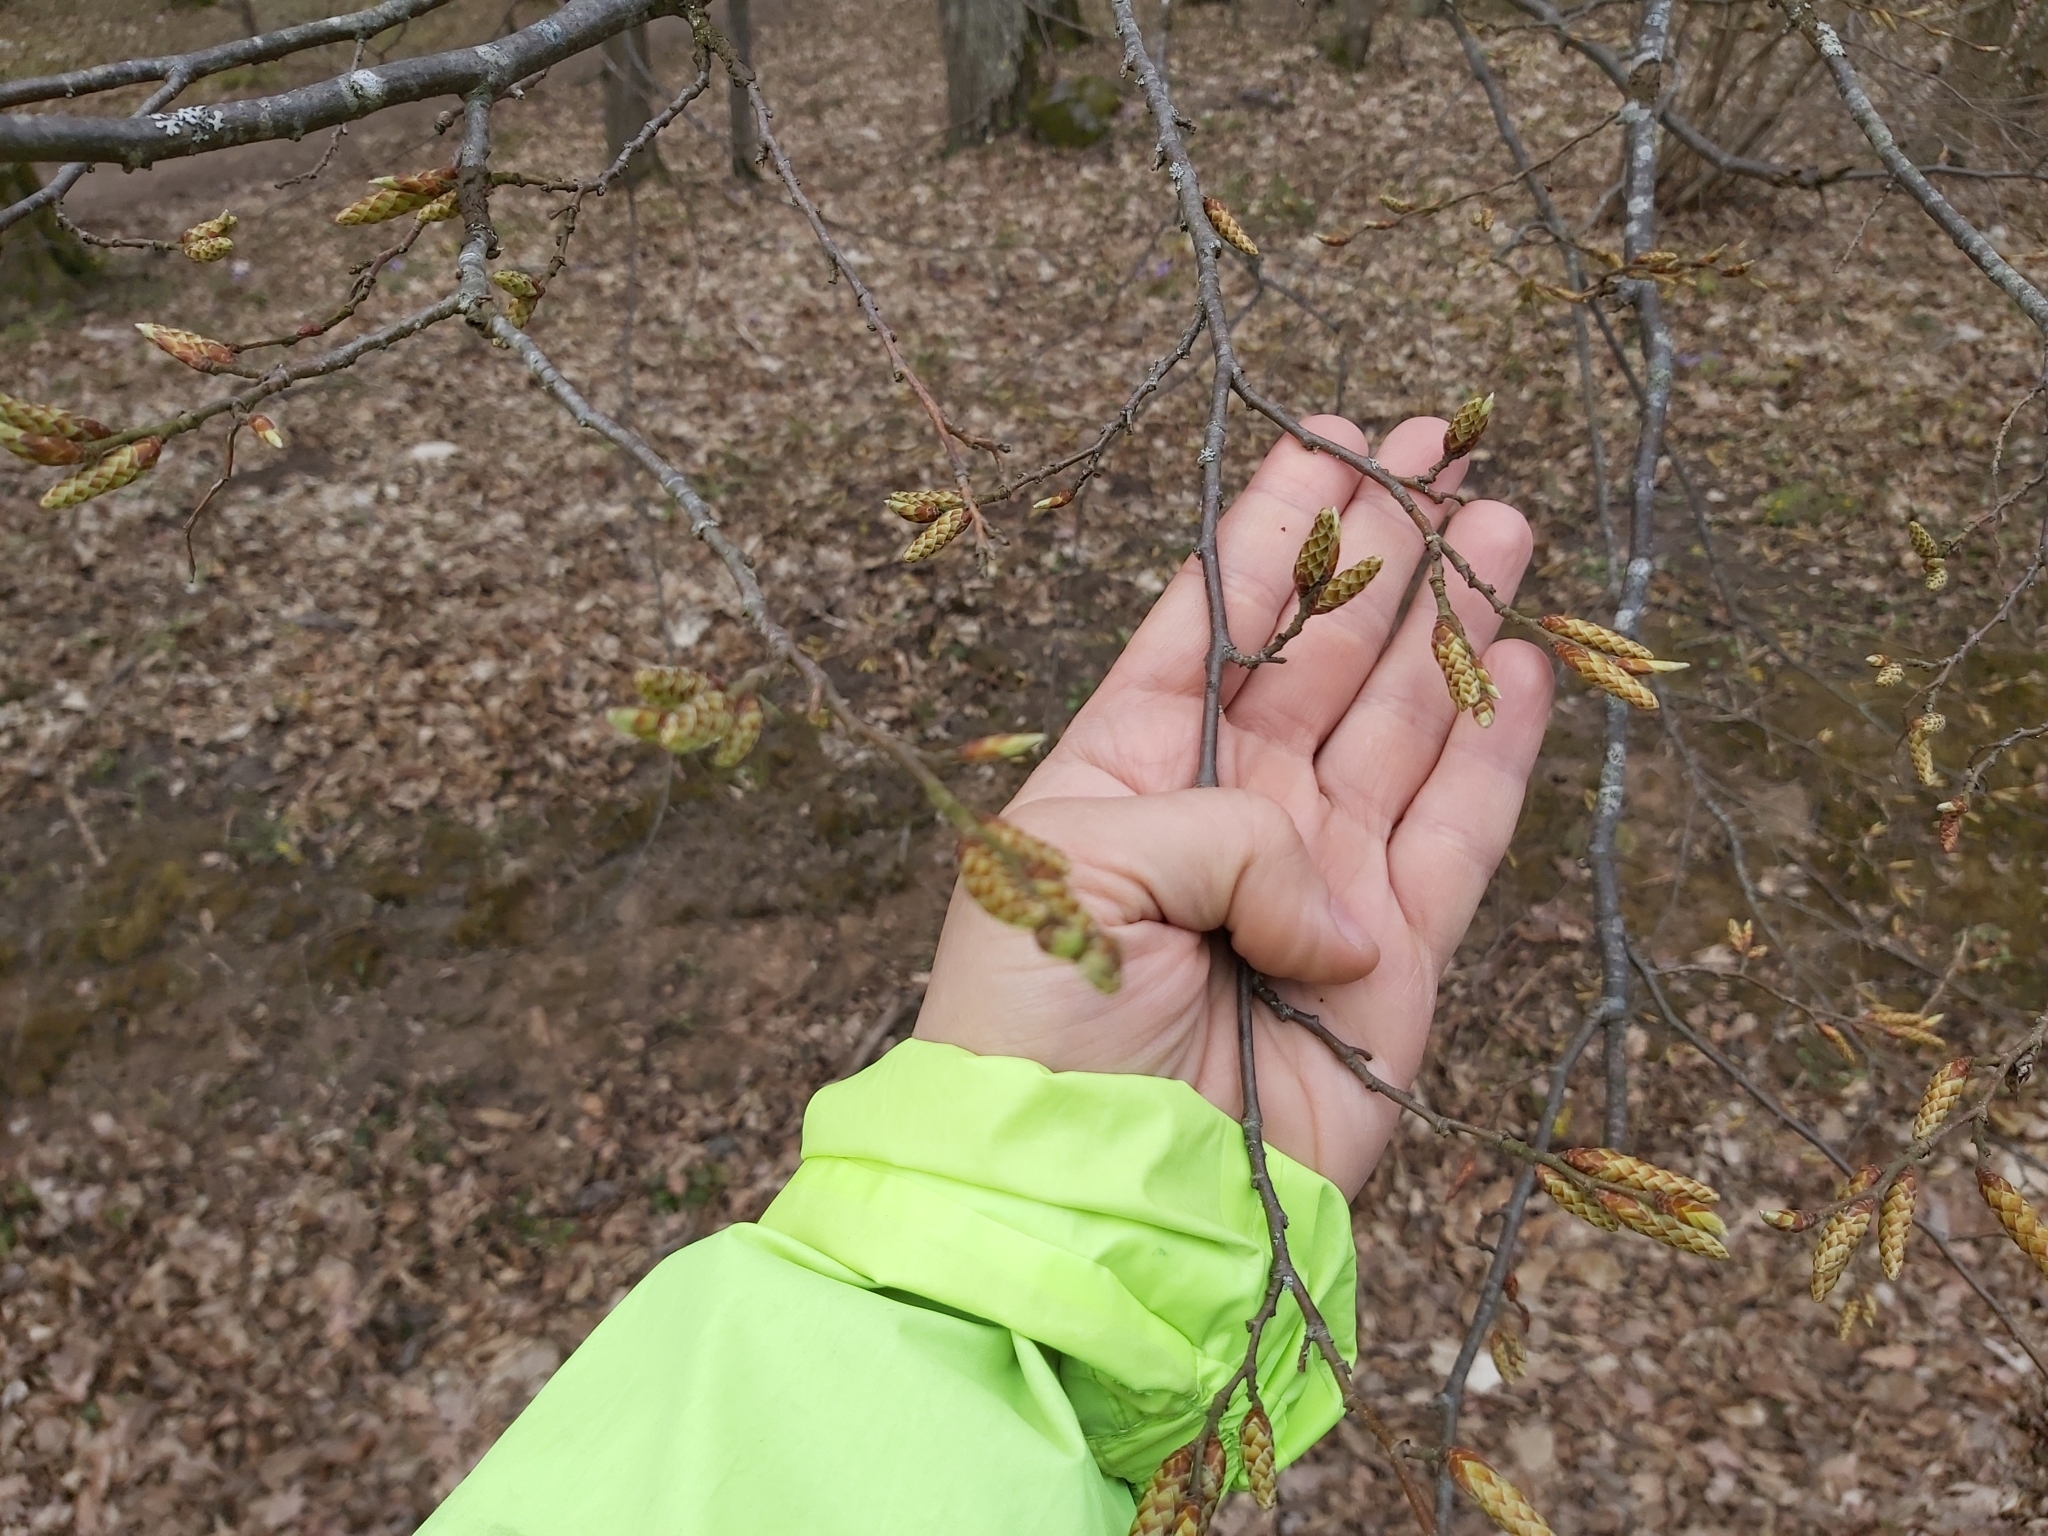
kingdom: Plantae
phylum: Tracheophyta
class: Magnoliopsida
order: Fagales
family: Betulaceae
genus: Carpinus
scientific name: Carpinus betulus
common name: Hornbeam
